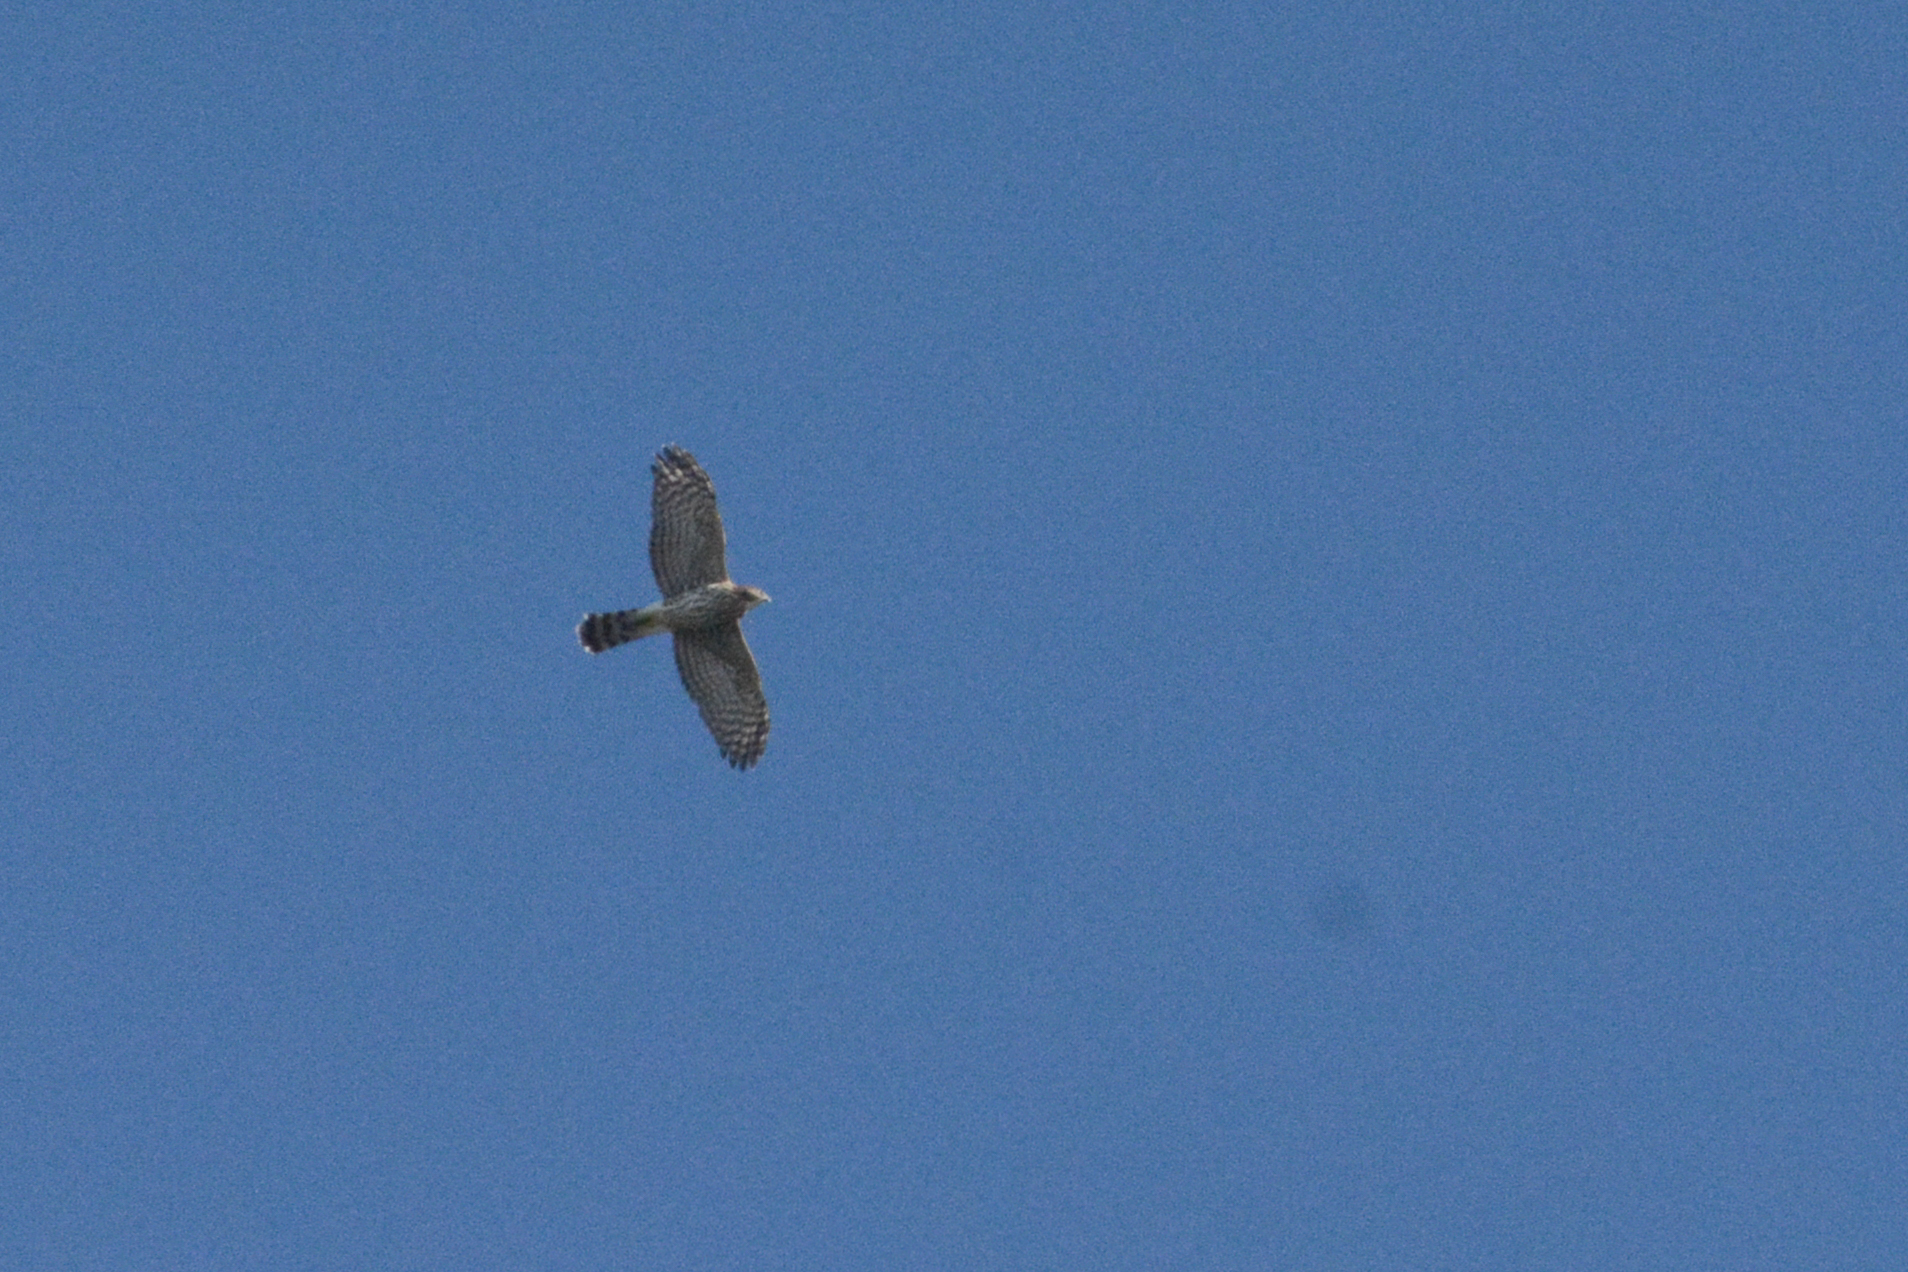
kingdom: Animalia
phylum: Chordata
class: Aves
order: Accipitriformes
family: Accipitridae
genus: Accipiter
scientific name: Accipiter cooperii
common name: Cooper's hawk
